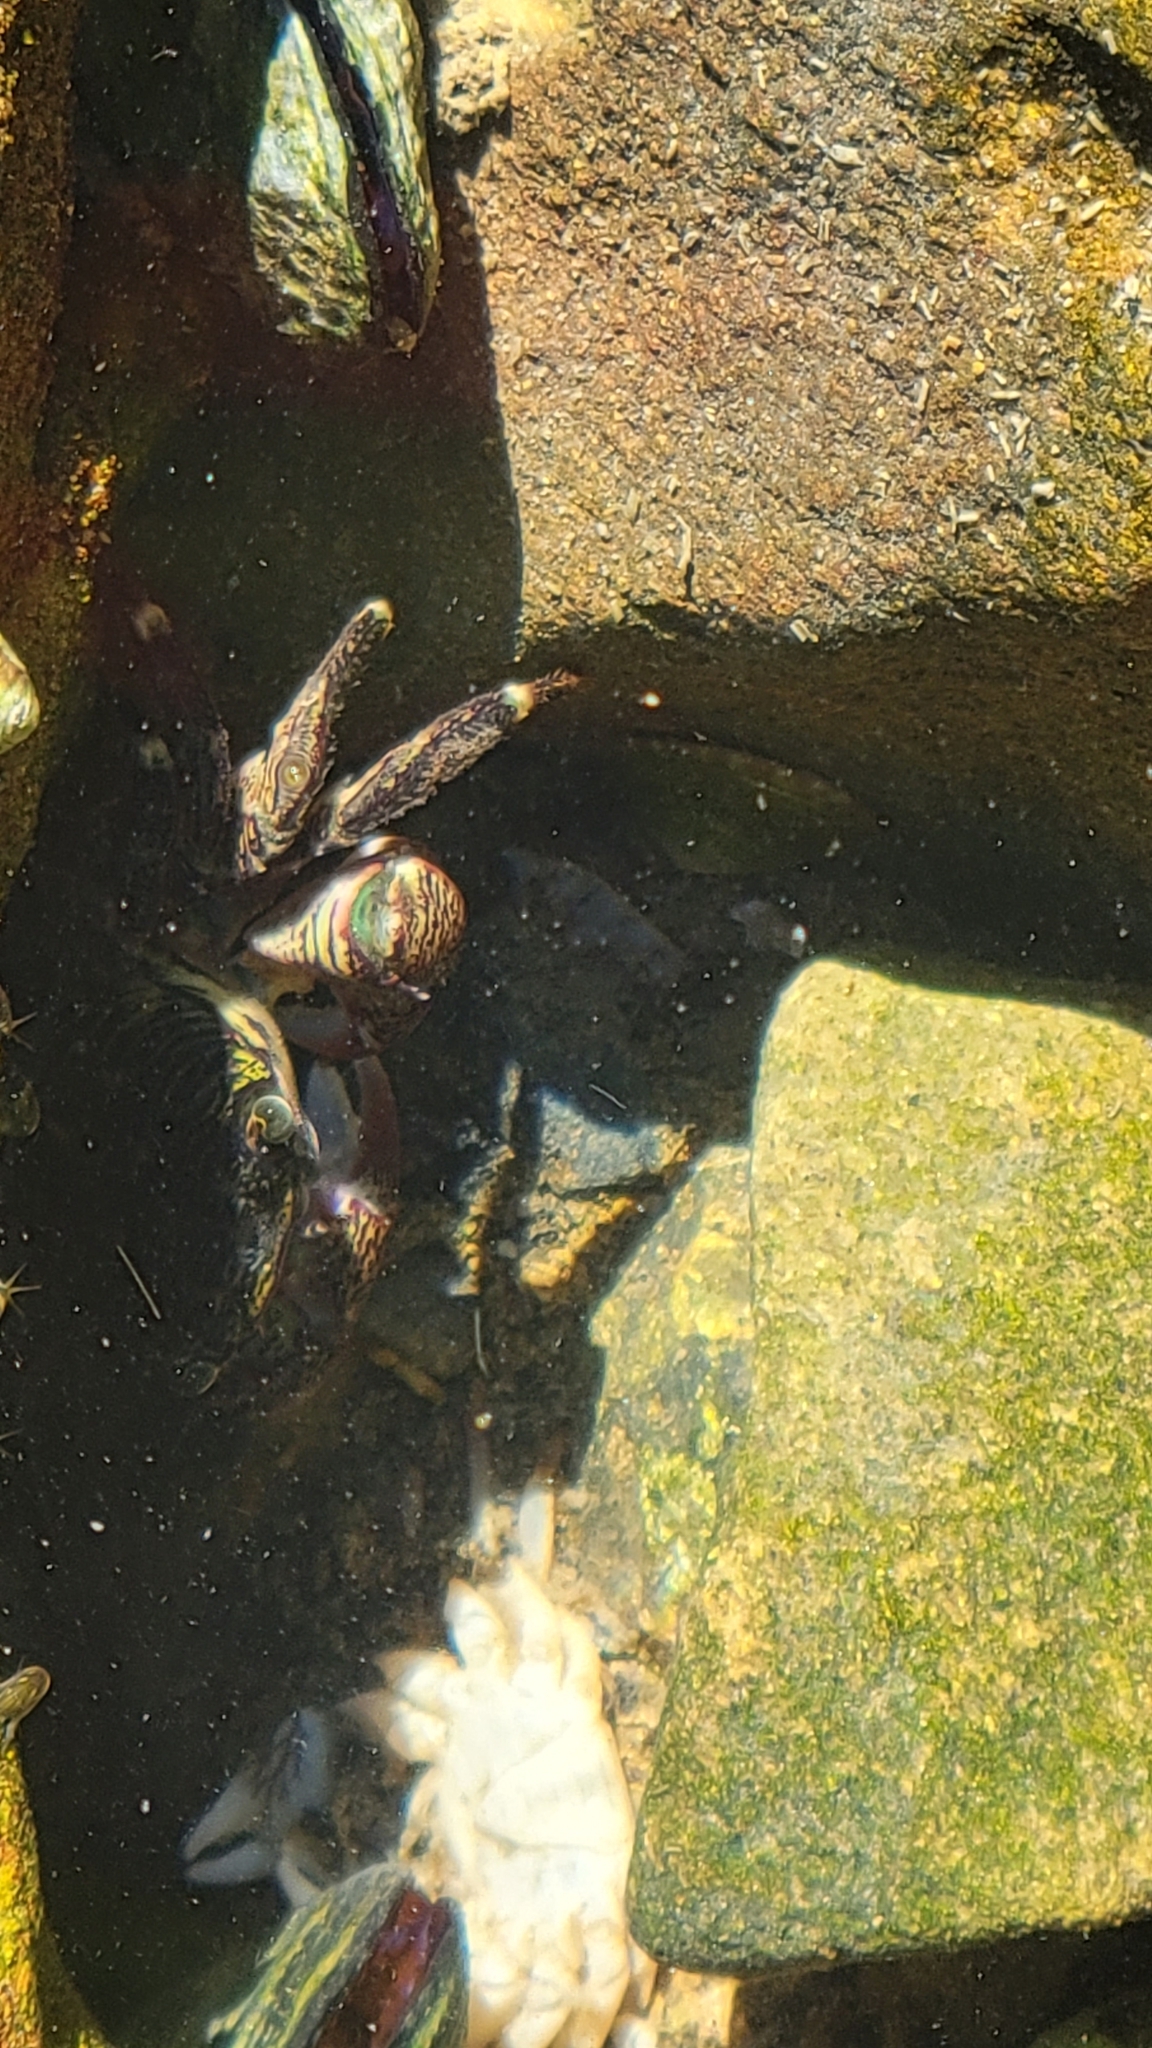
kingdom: Animalia
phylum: Arthropoda
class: Malacostraca
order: Decapoda
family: Grapsidae
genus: Pachygrapsus
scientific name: Pachygrapsus crassipes
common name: Striped shore crab
